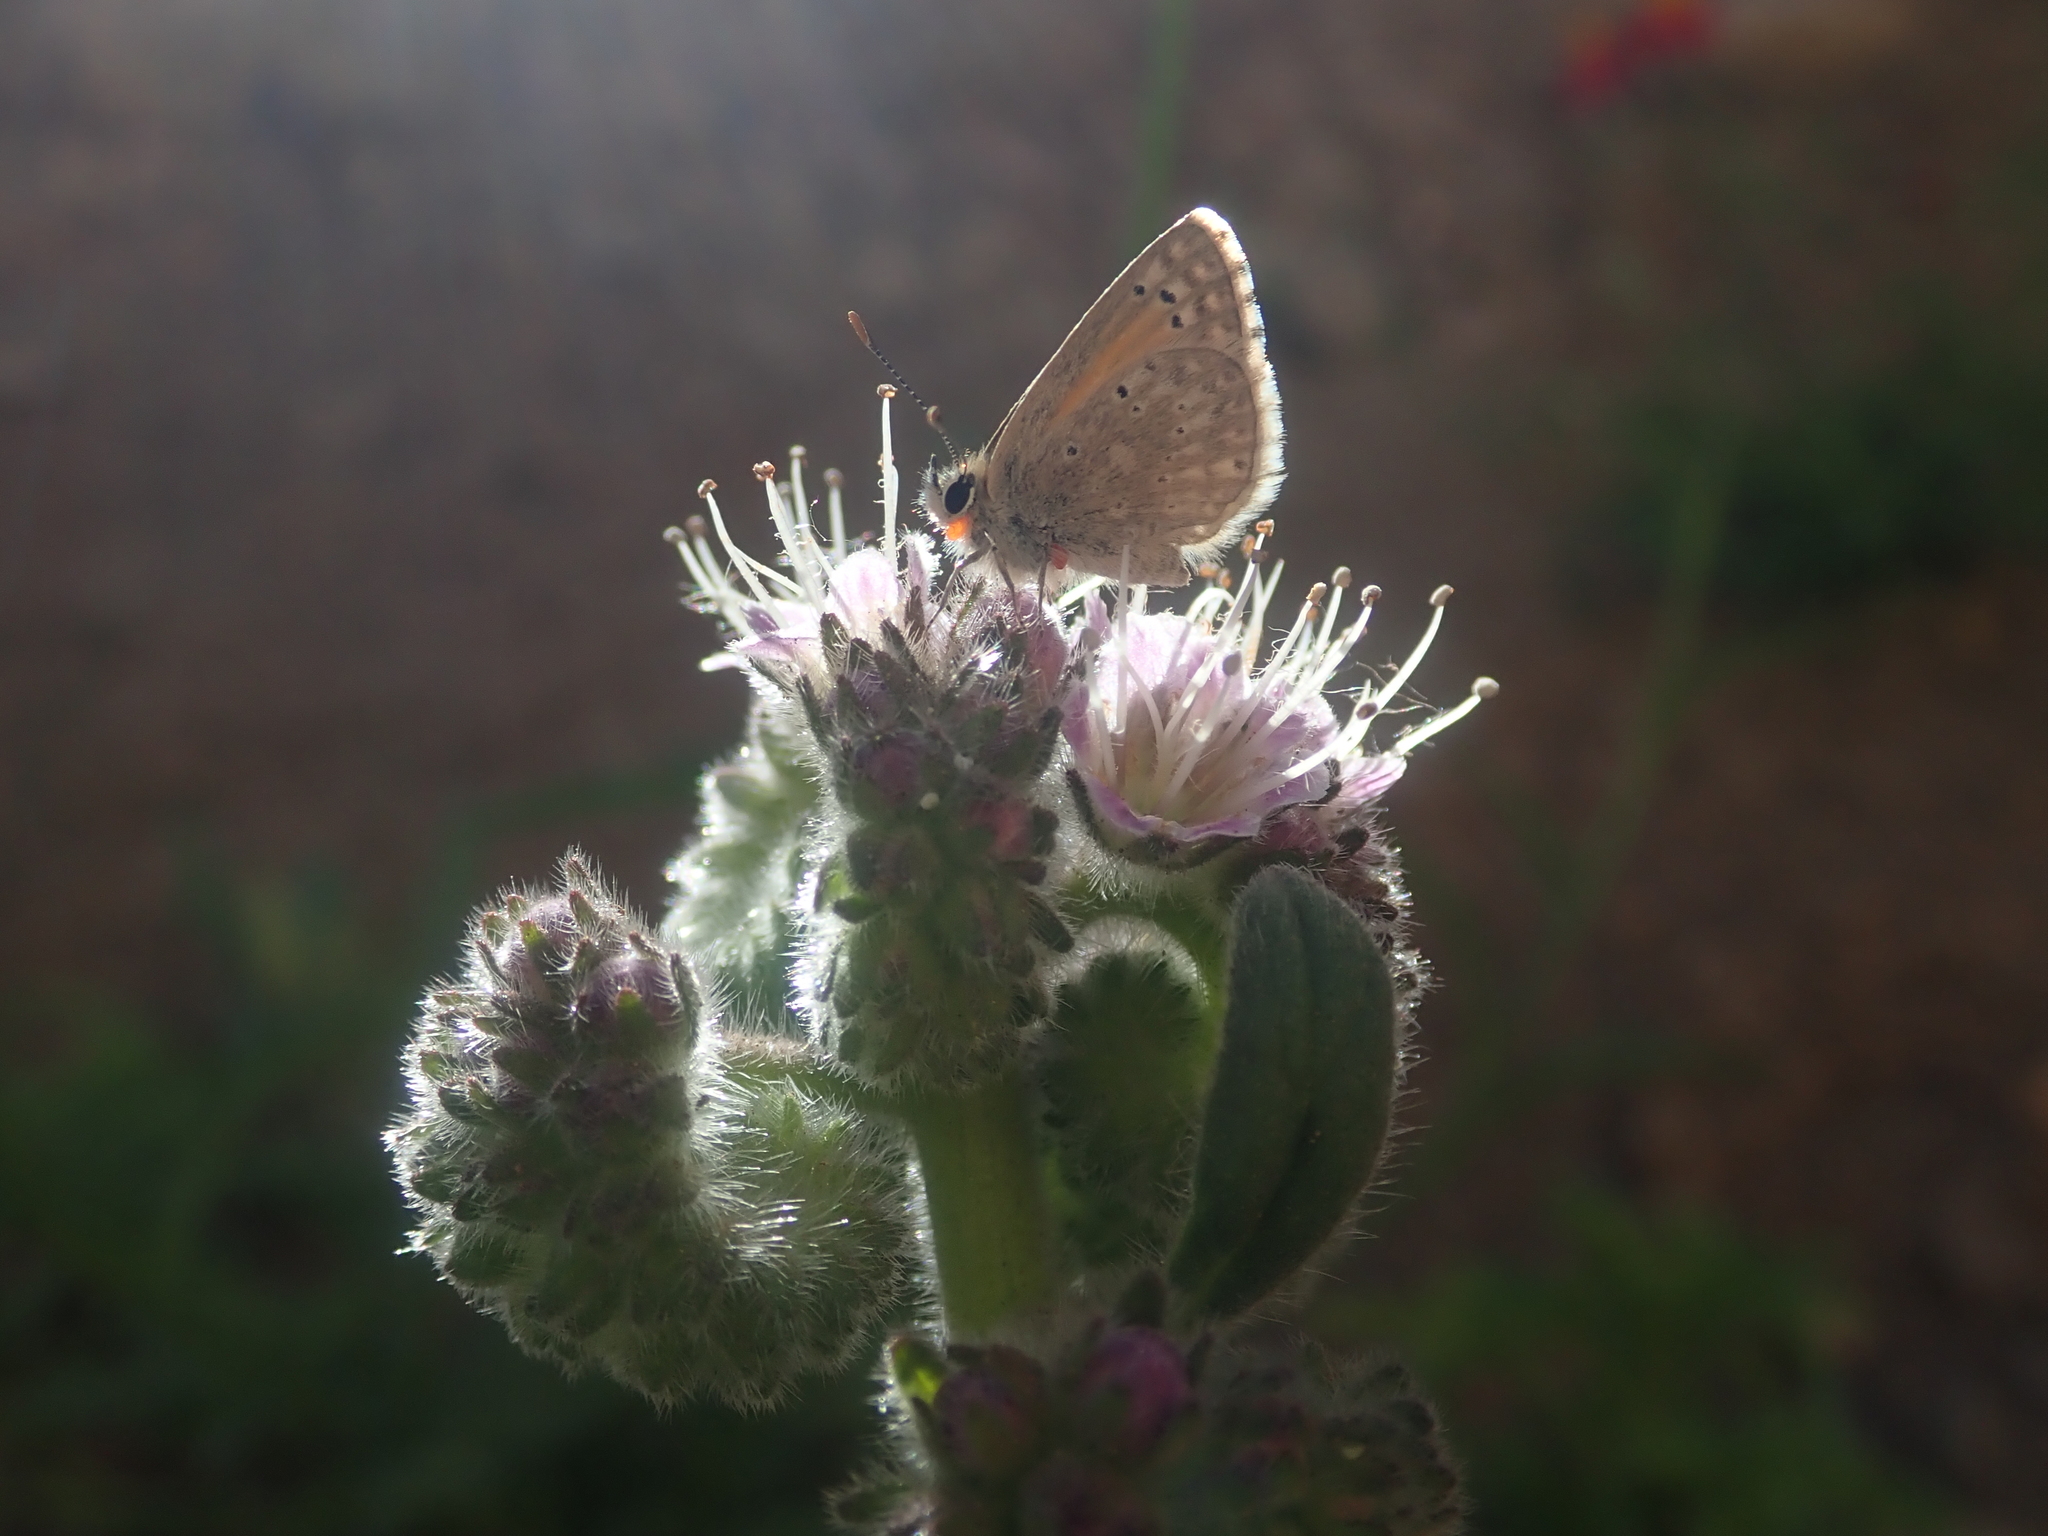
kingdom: Animalia
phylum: Arthropoda
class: Insecta
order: Lepidoptera
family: Lycaenidae
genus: Pseudolucia
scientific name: Pseudolucia
